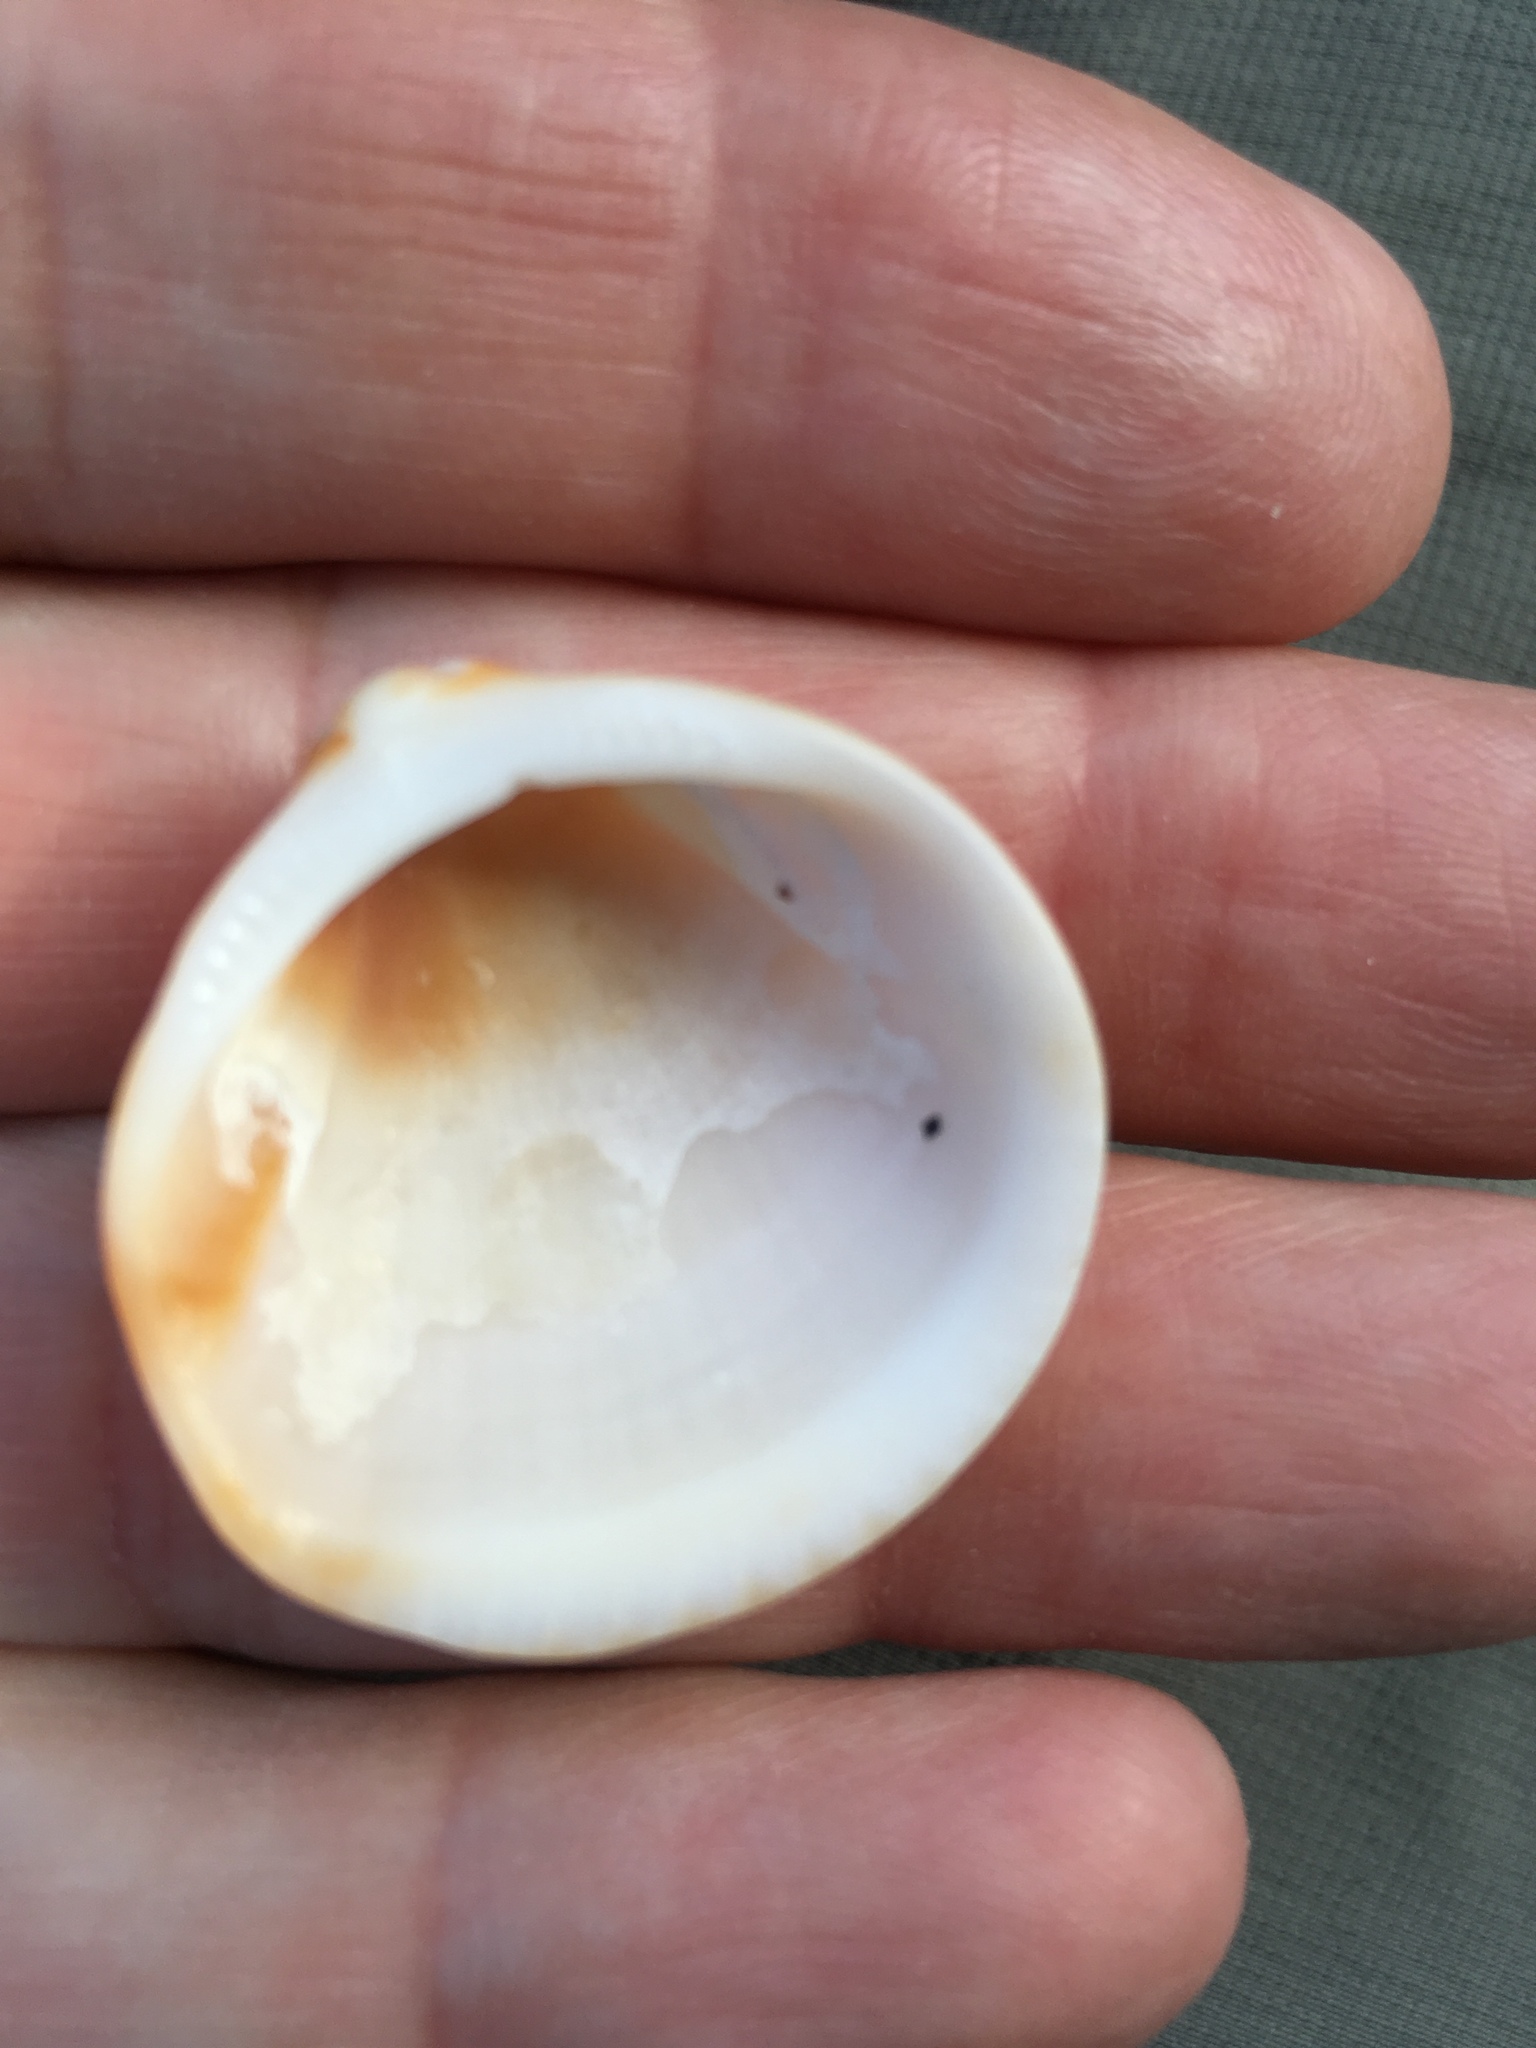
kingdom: Animalia
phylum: Mollusca
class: Bivalvia
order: Arcida
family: Glycymerididae
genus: Glycymeris
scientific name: Glycymeris spectralis
